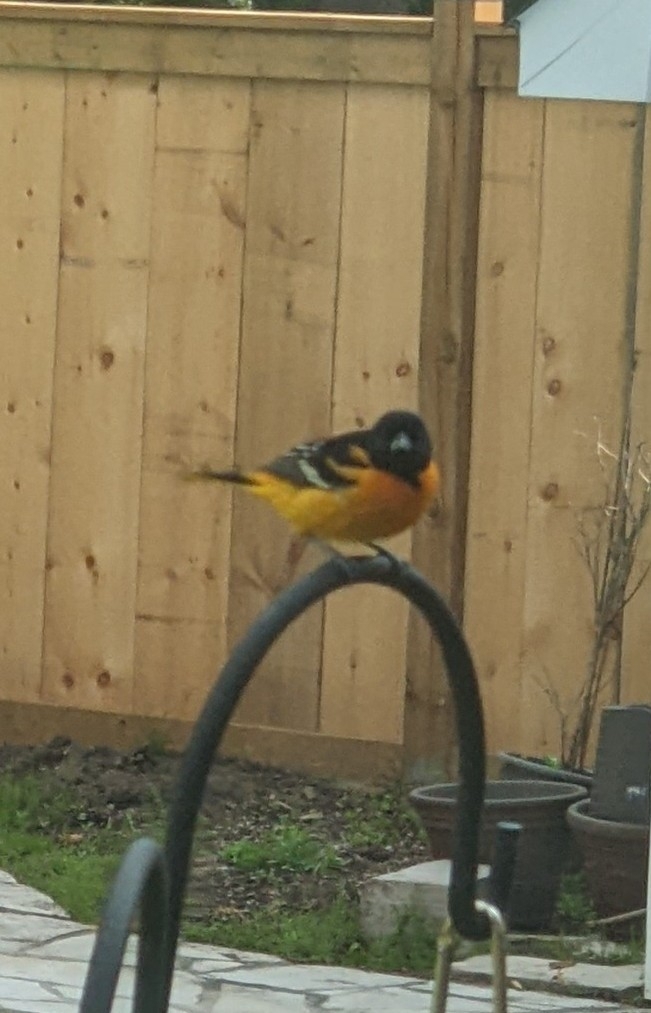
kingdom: Animalia
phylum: Chordata
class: Aves
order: Passeriformes
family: Icteridae
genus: Icterus
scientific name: Icterus galbula
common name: Baltimore oriole
